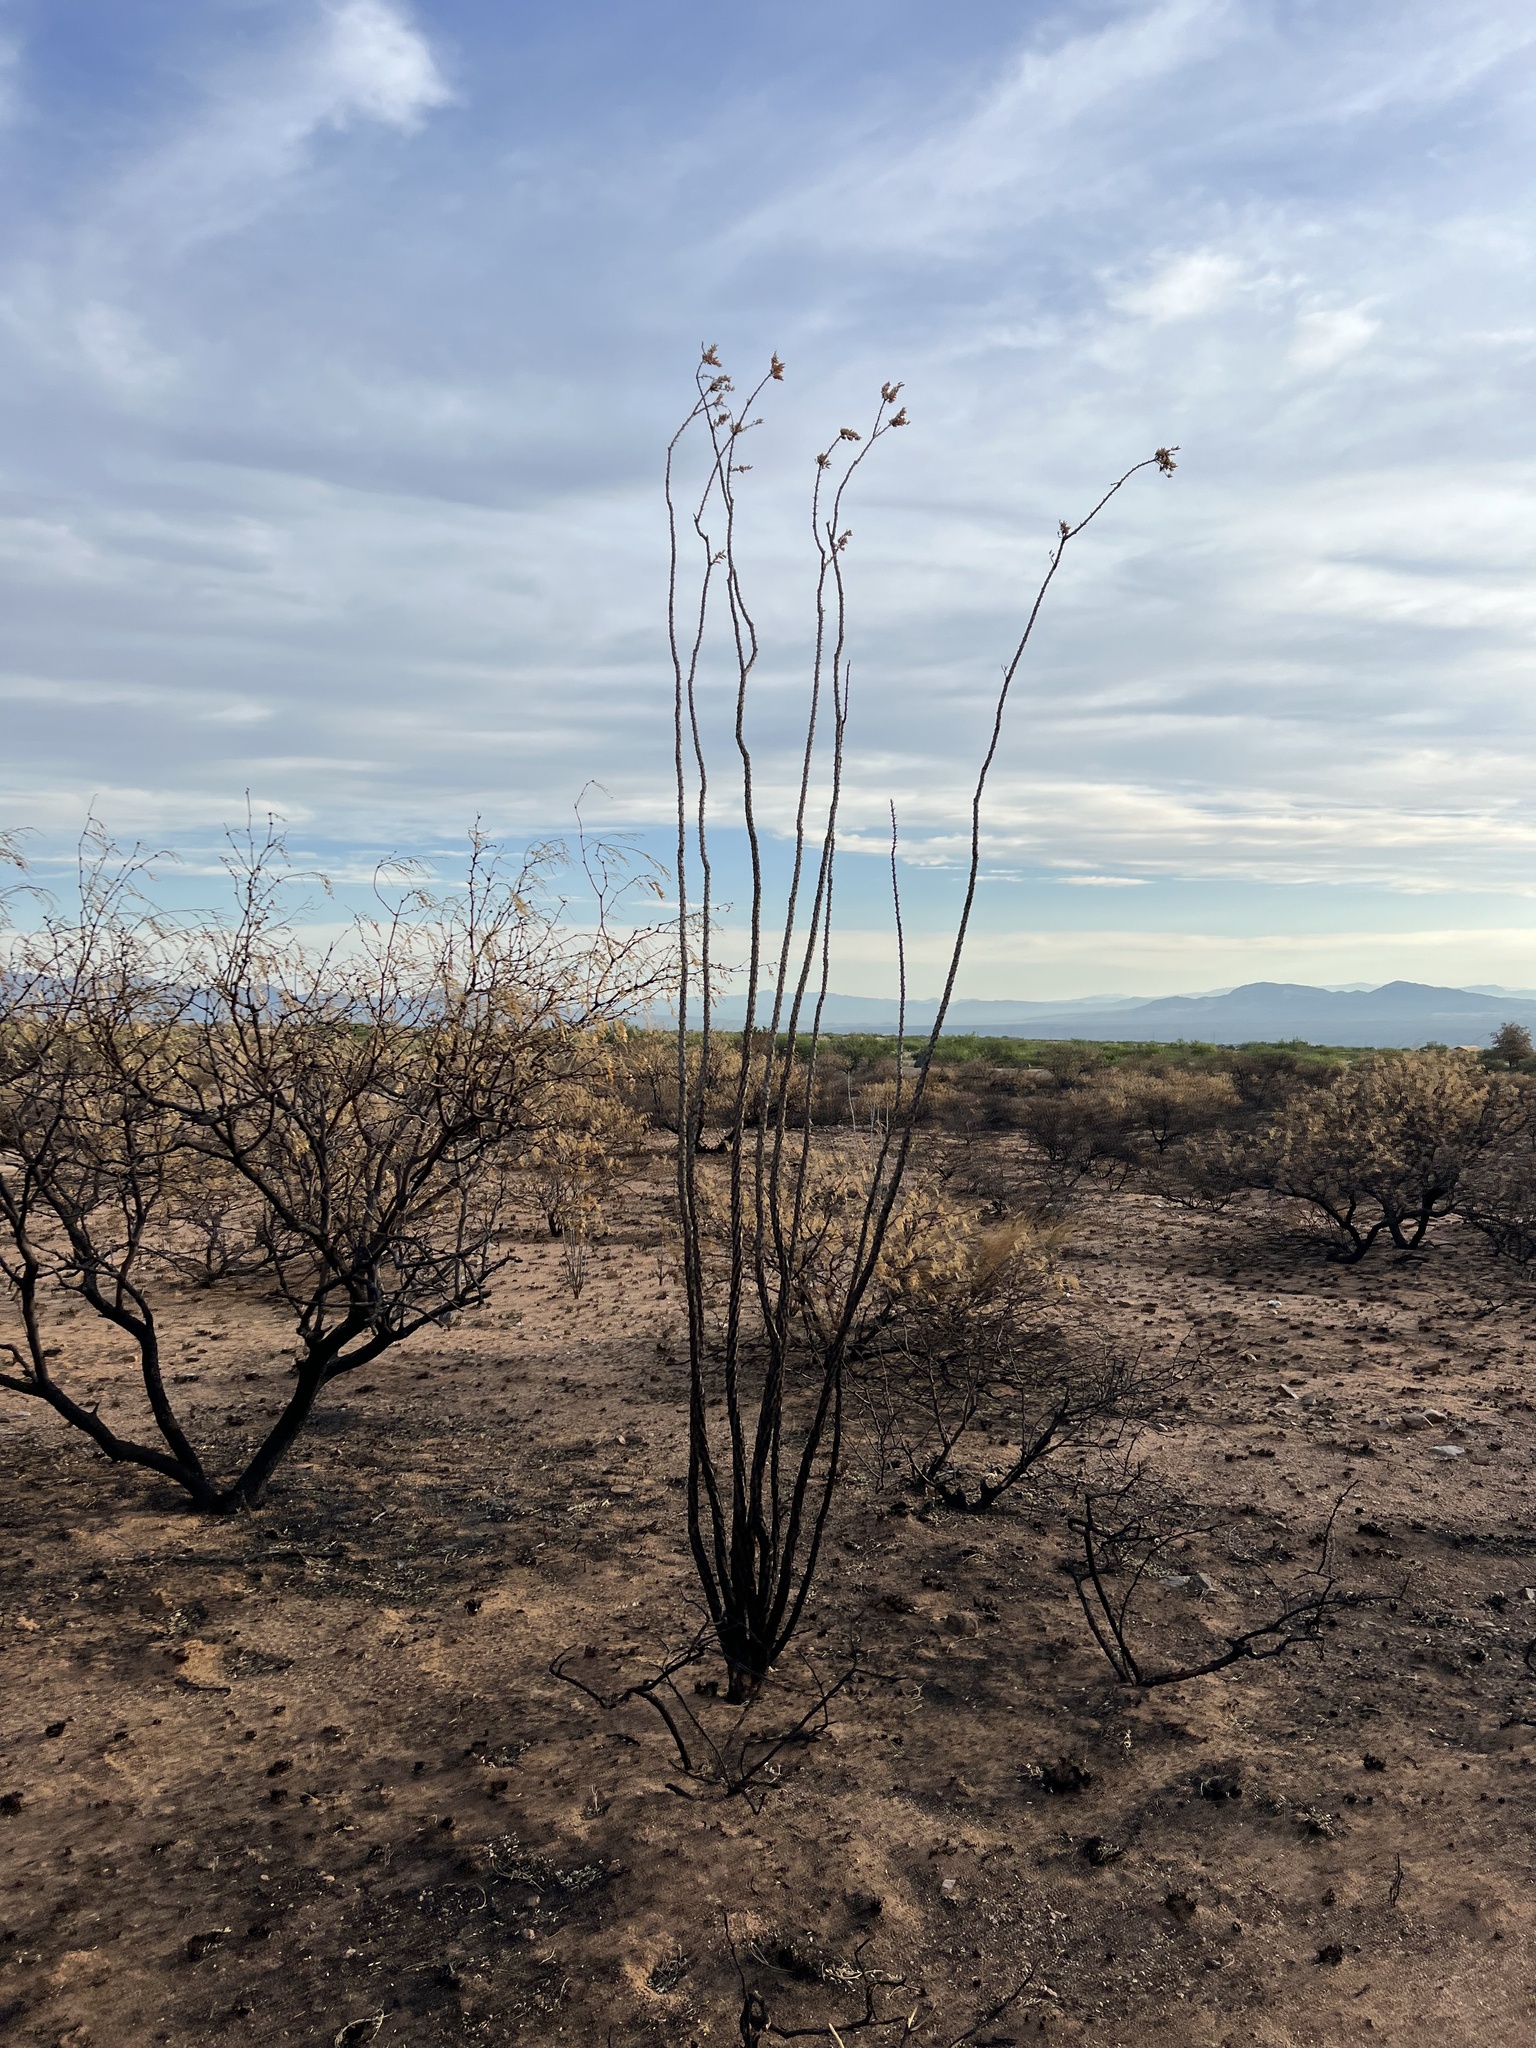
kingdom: Plantae
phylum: Tracheophyta
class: Magnoliopsida
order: Ericales
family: Fouquieriaceae
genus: Fouquieria
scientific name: Fouquieria splendens
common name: Vine-cactus
